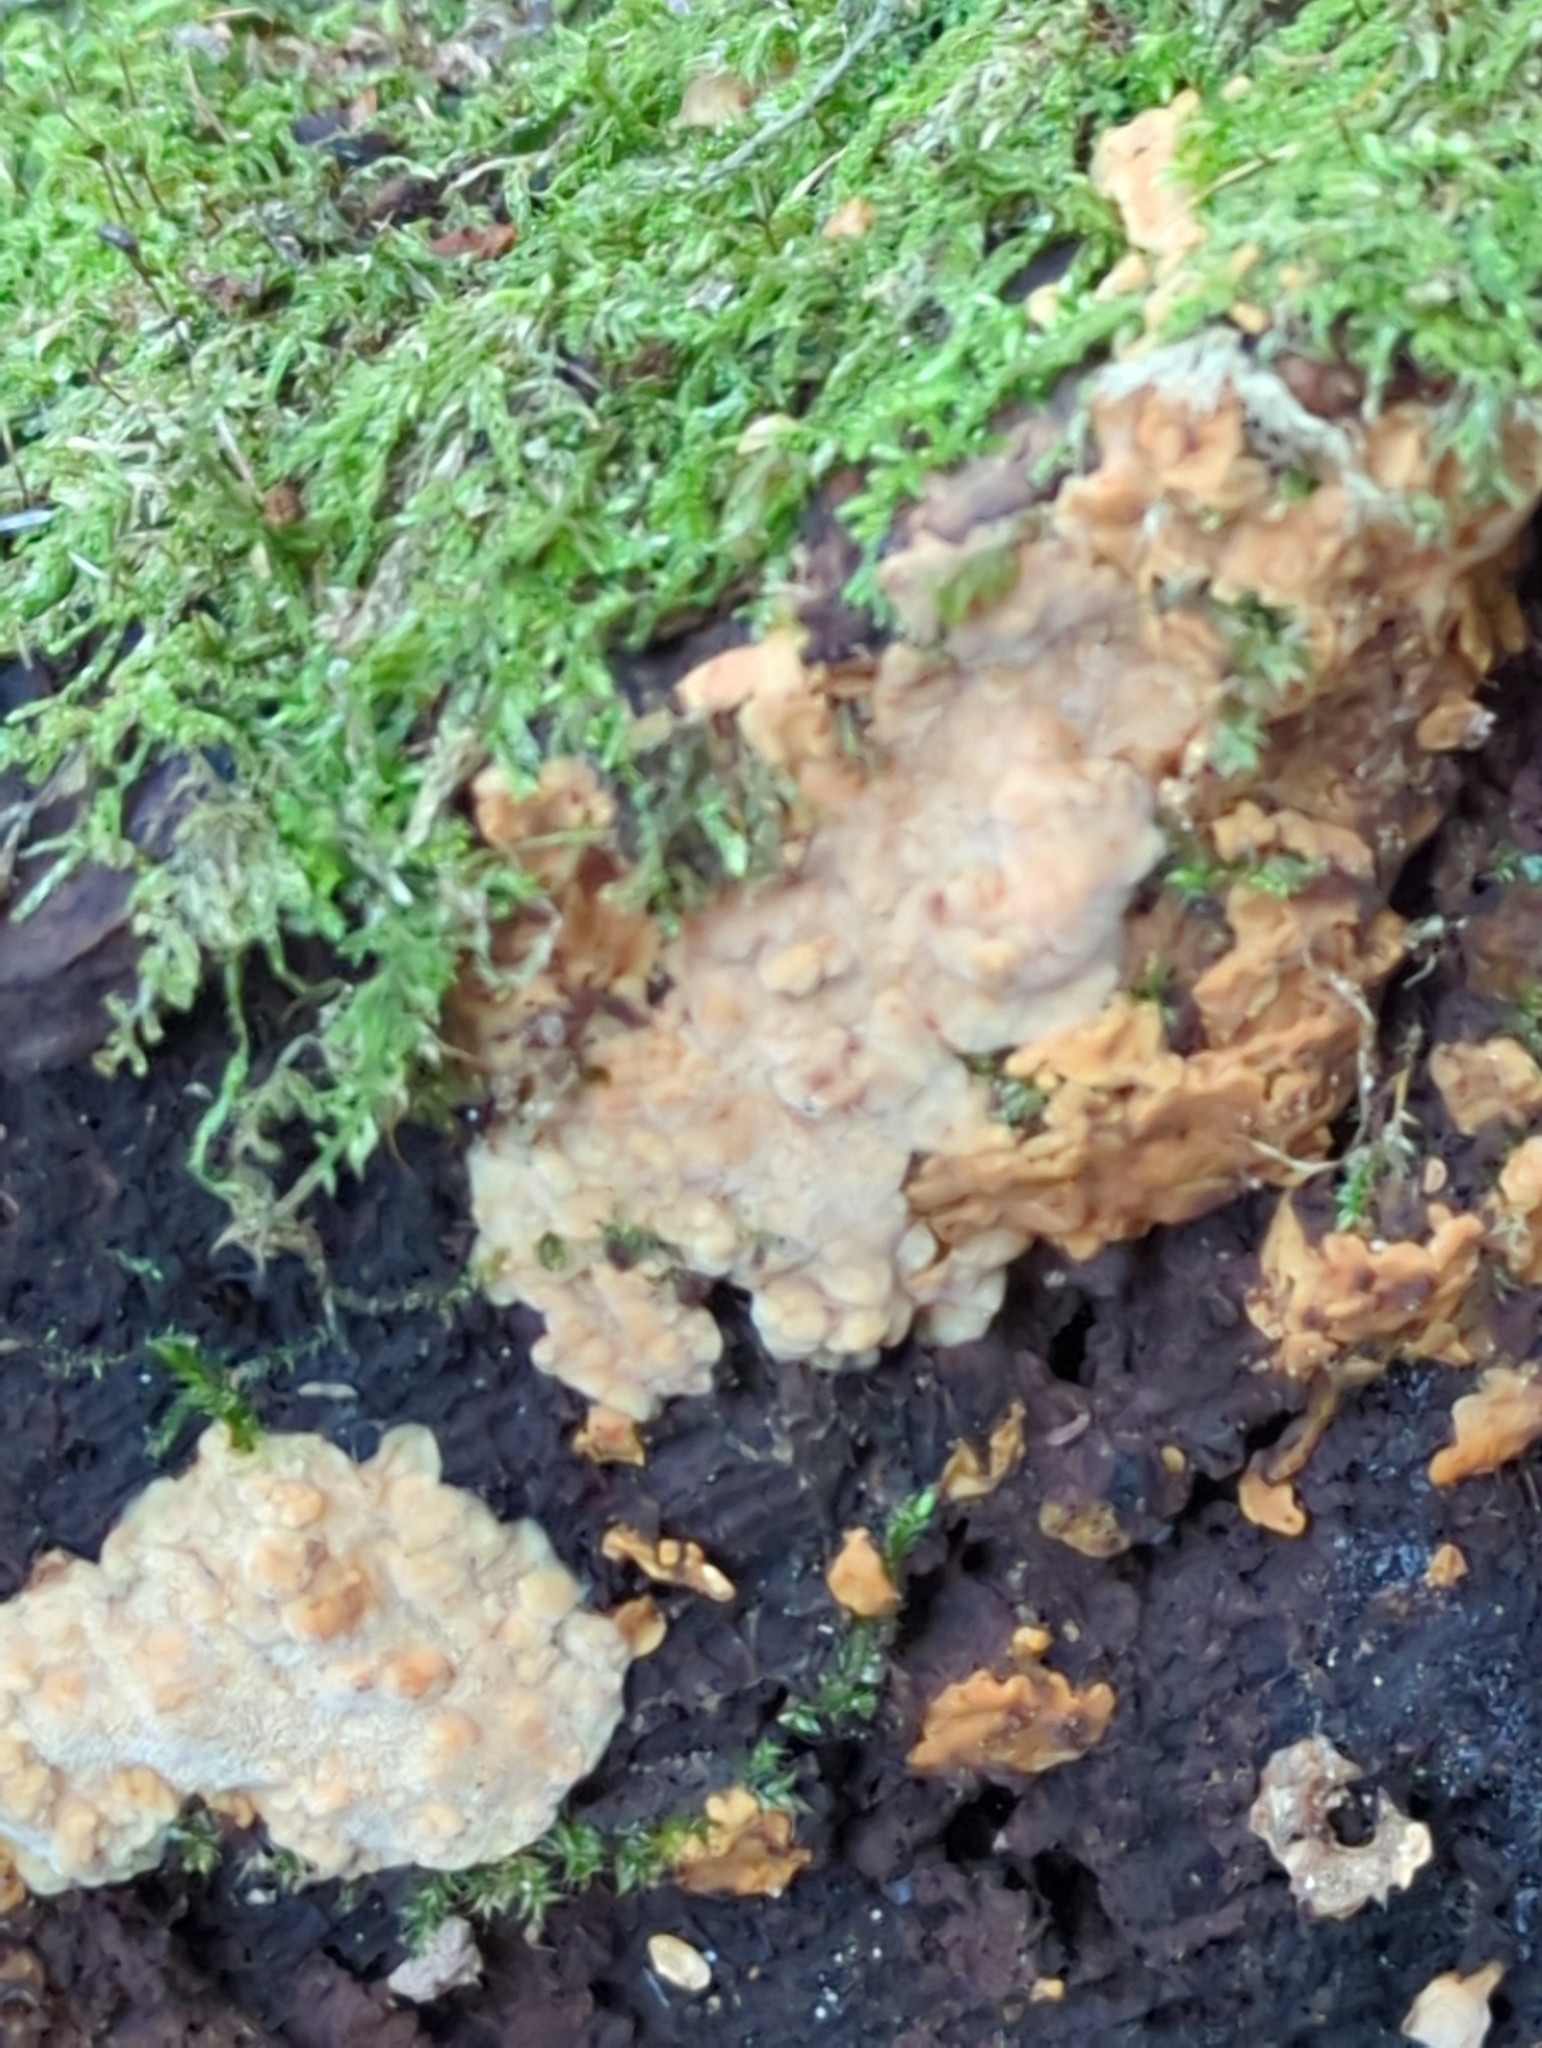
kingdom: Fungi
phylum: Basidiomycota
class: Agaricomycetes
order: Polyporales
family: Meripilaceae
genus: Rigidoporus
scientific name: Rigidoporus crocatus
